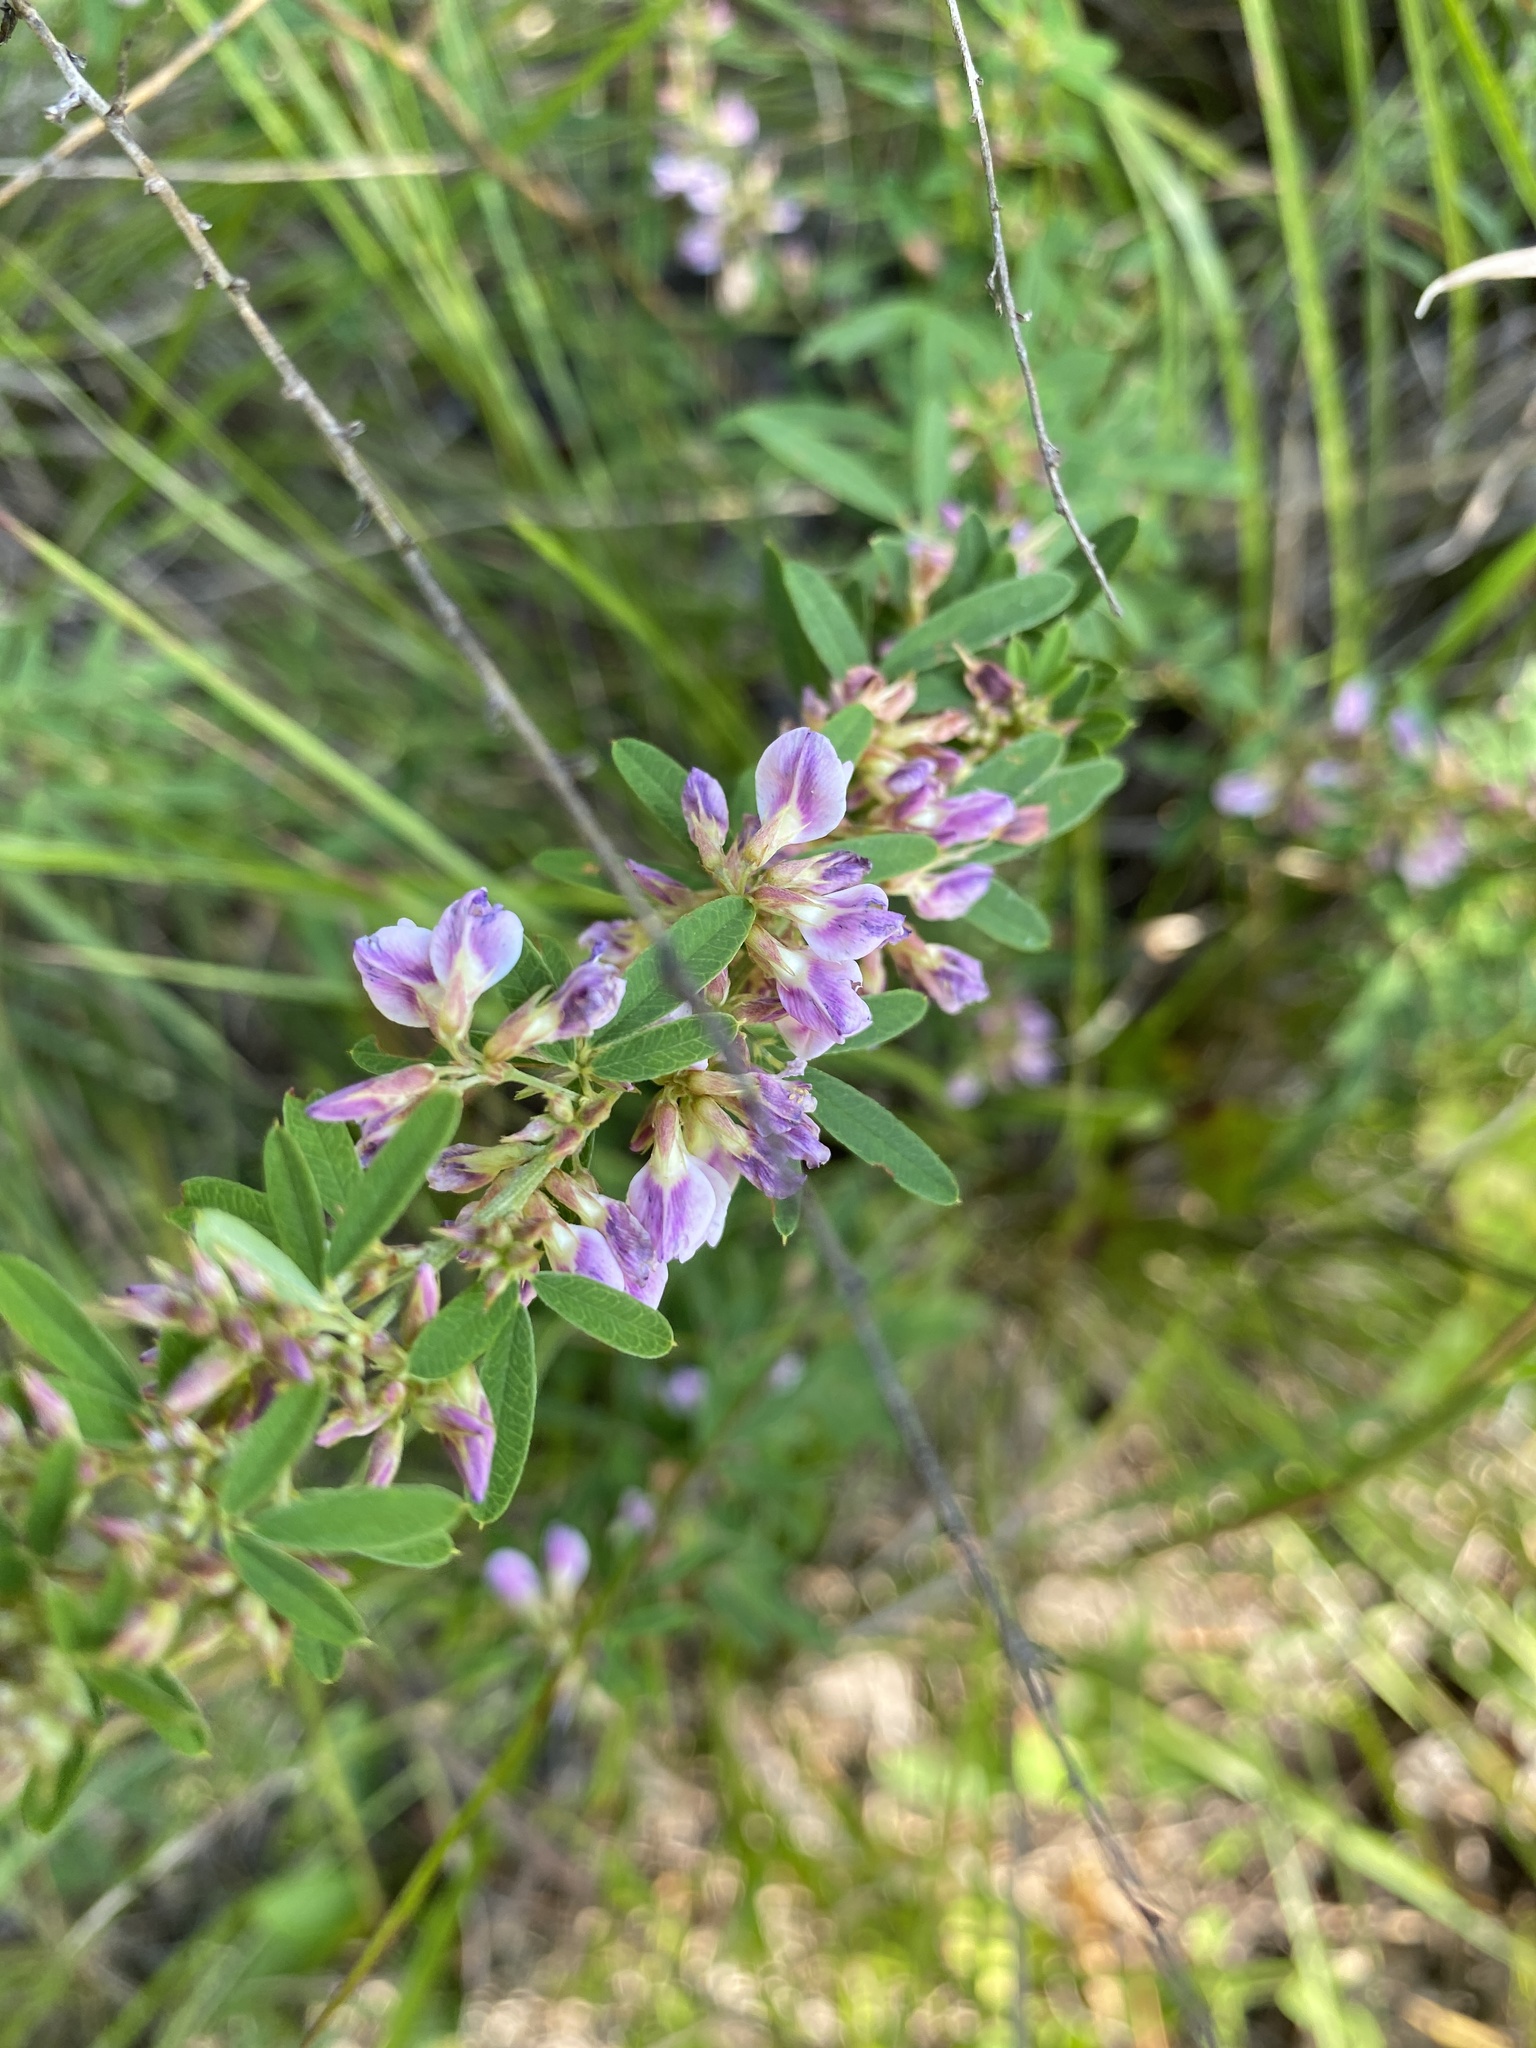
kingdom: Plantae
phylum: Tracheophyta
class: Magnoliopsida
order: Fabales
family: Fabaceae
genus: Lespedeza
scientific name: Lespedeza virginica
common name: Slender bush-clover
